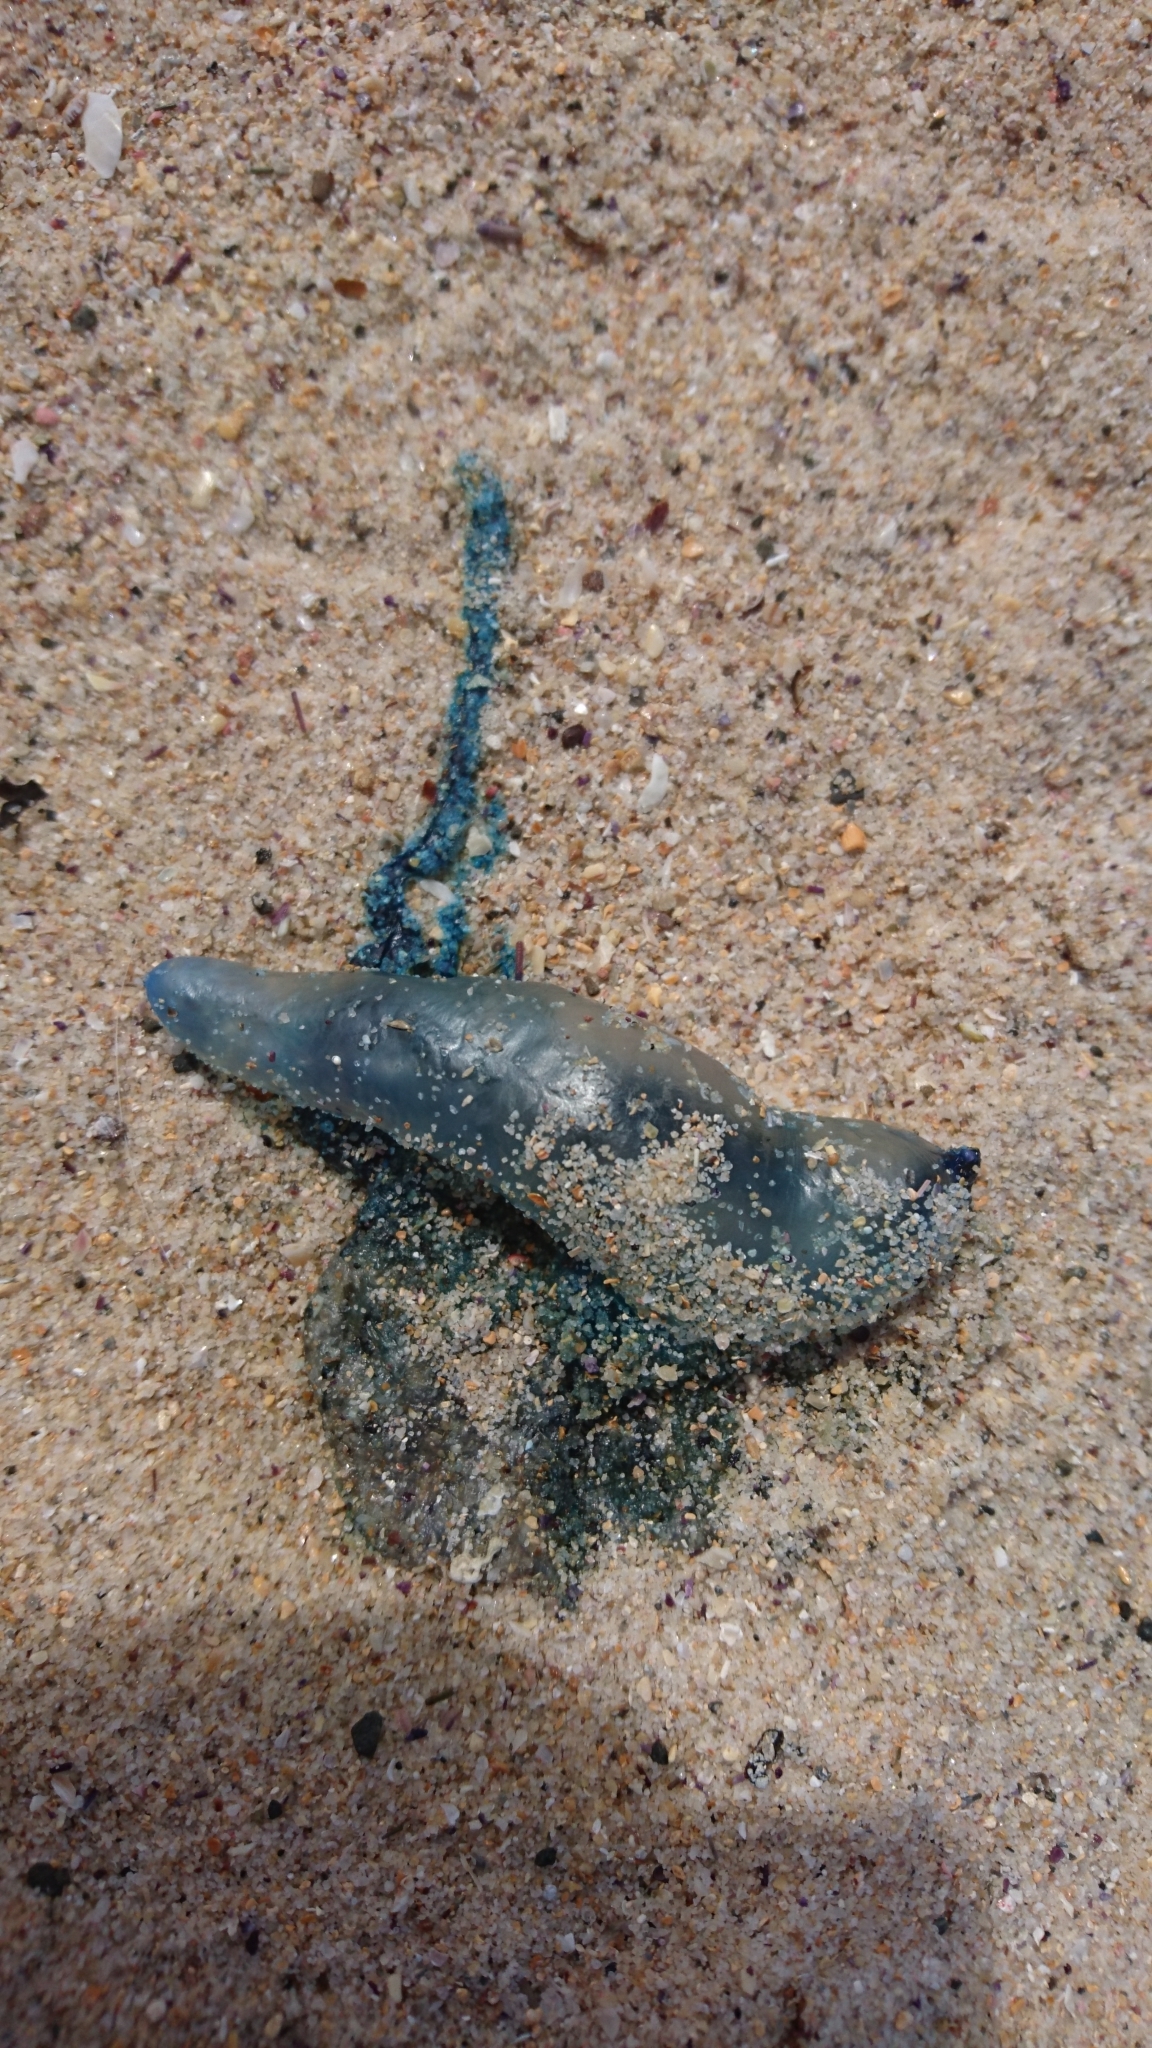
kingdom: Animalia
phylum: Cnidaria
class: Hydrozoa
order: Siphonophorae
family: Physaliidae
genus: Physalia
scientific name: Physalia physalis
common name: Portuguese man-of-war
